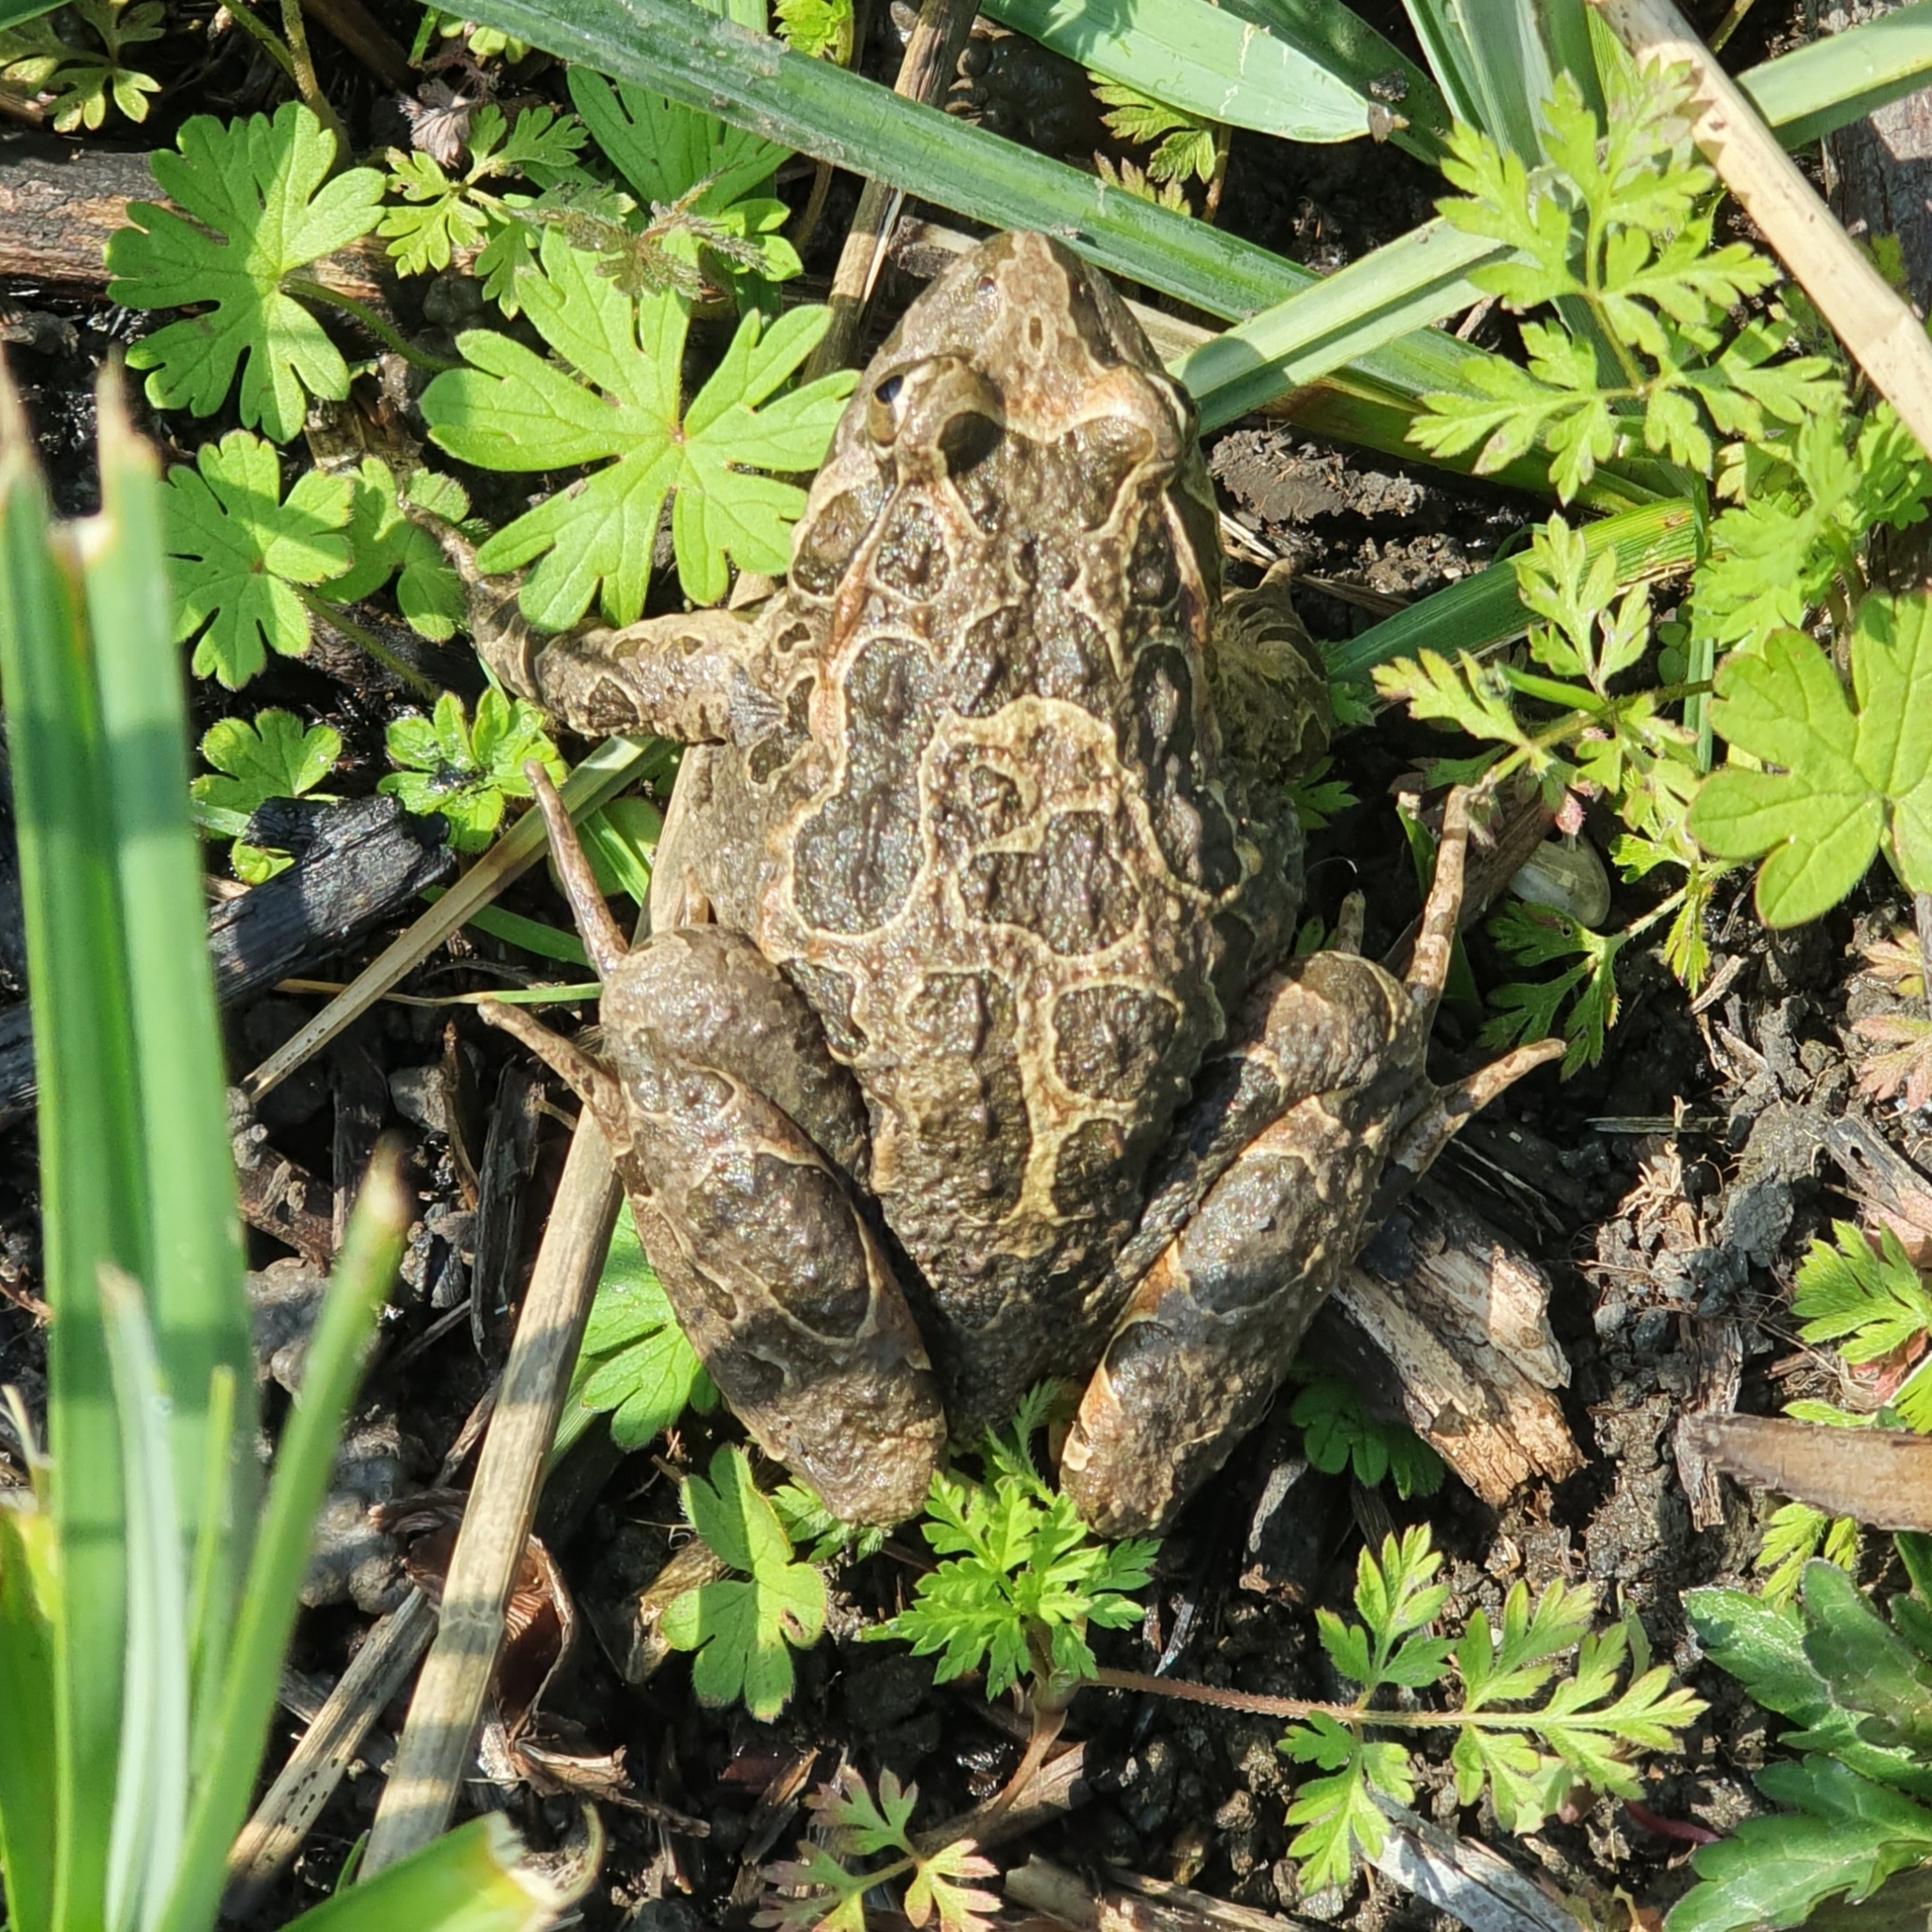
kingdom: Animalia
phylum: Chordata
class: Amphibia
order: Anura
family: Alytidae
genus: Discoglossus
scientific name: Discoglossus pictus
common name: Painted frog
